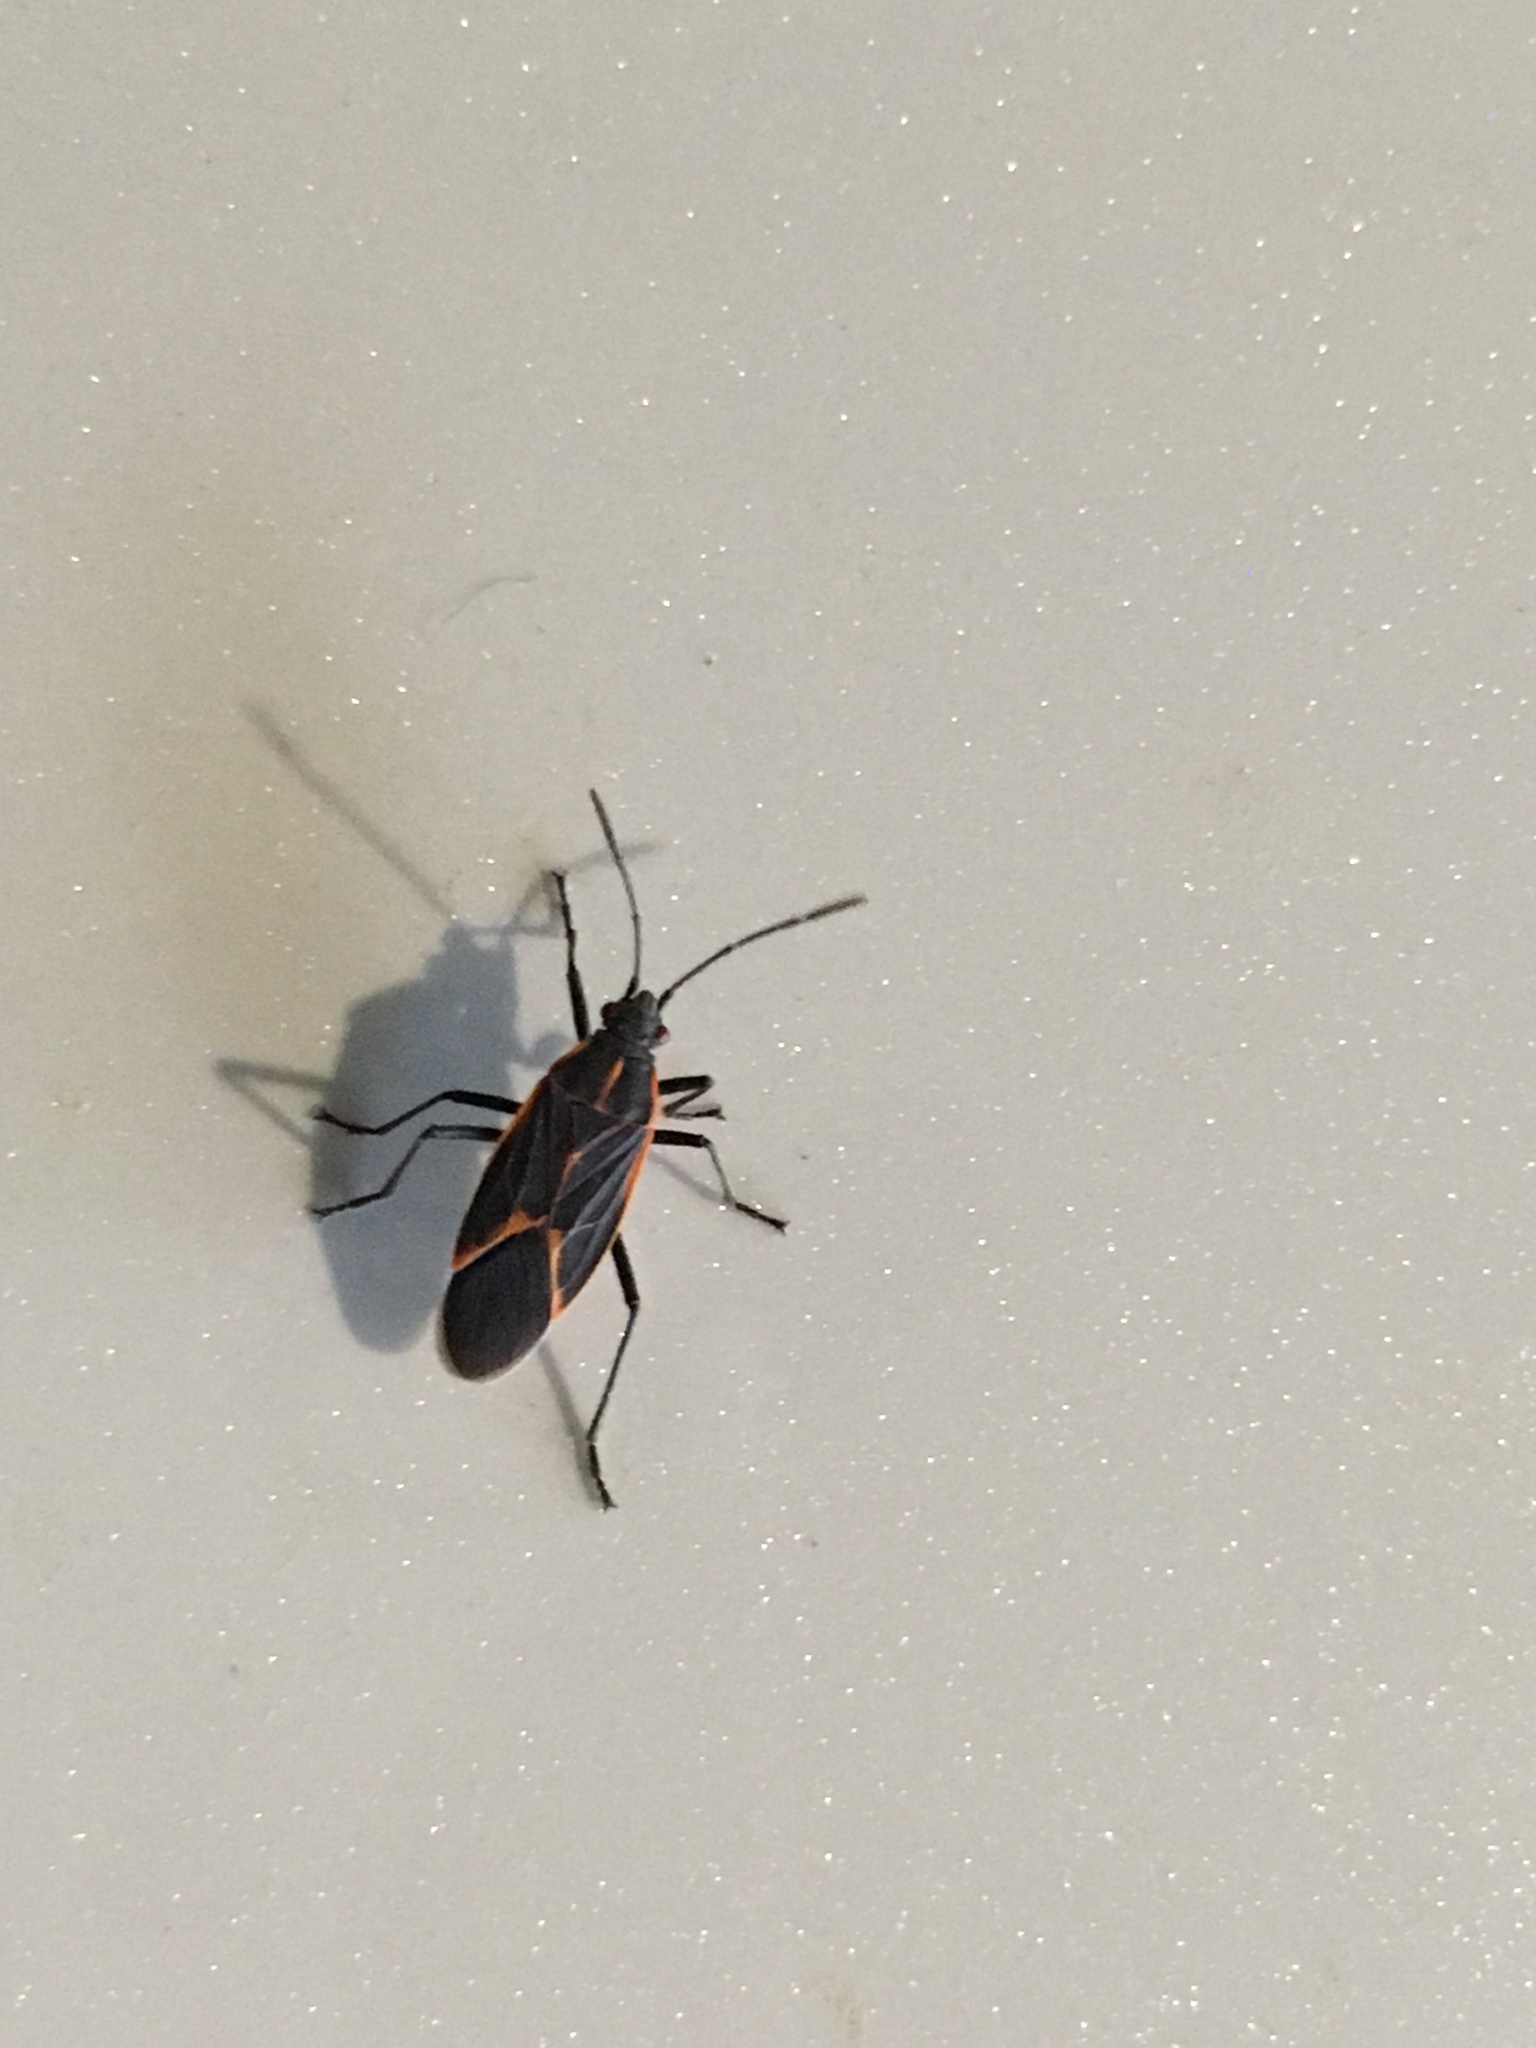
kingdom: Animalia
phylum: Arthropoda
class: Insecta
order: Hemiptera
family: Rhopalidae
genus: Boisea
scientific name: Boisea trivittata
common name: Boxelder bug
